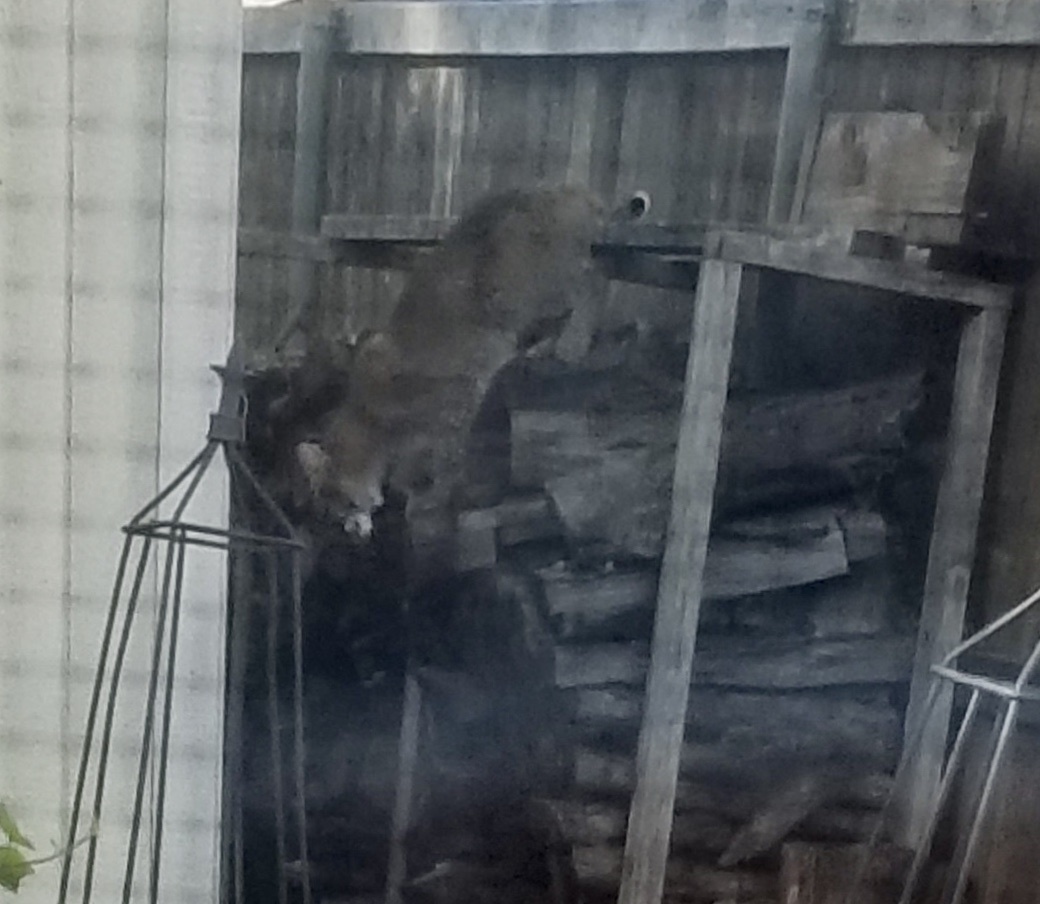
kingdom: Animalia
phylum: Chordata
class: Mammalia
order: Carnivora
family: Felidae
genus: Lynx
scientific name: Lynx rufus
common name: Bobcat
